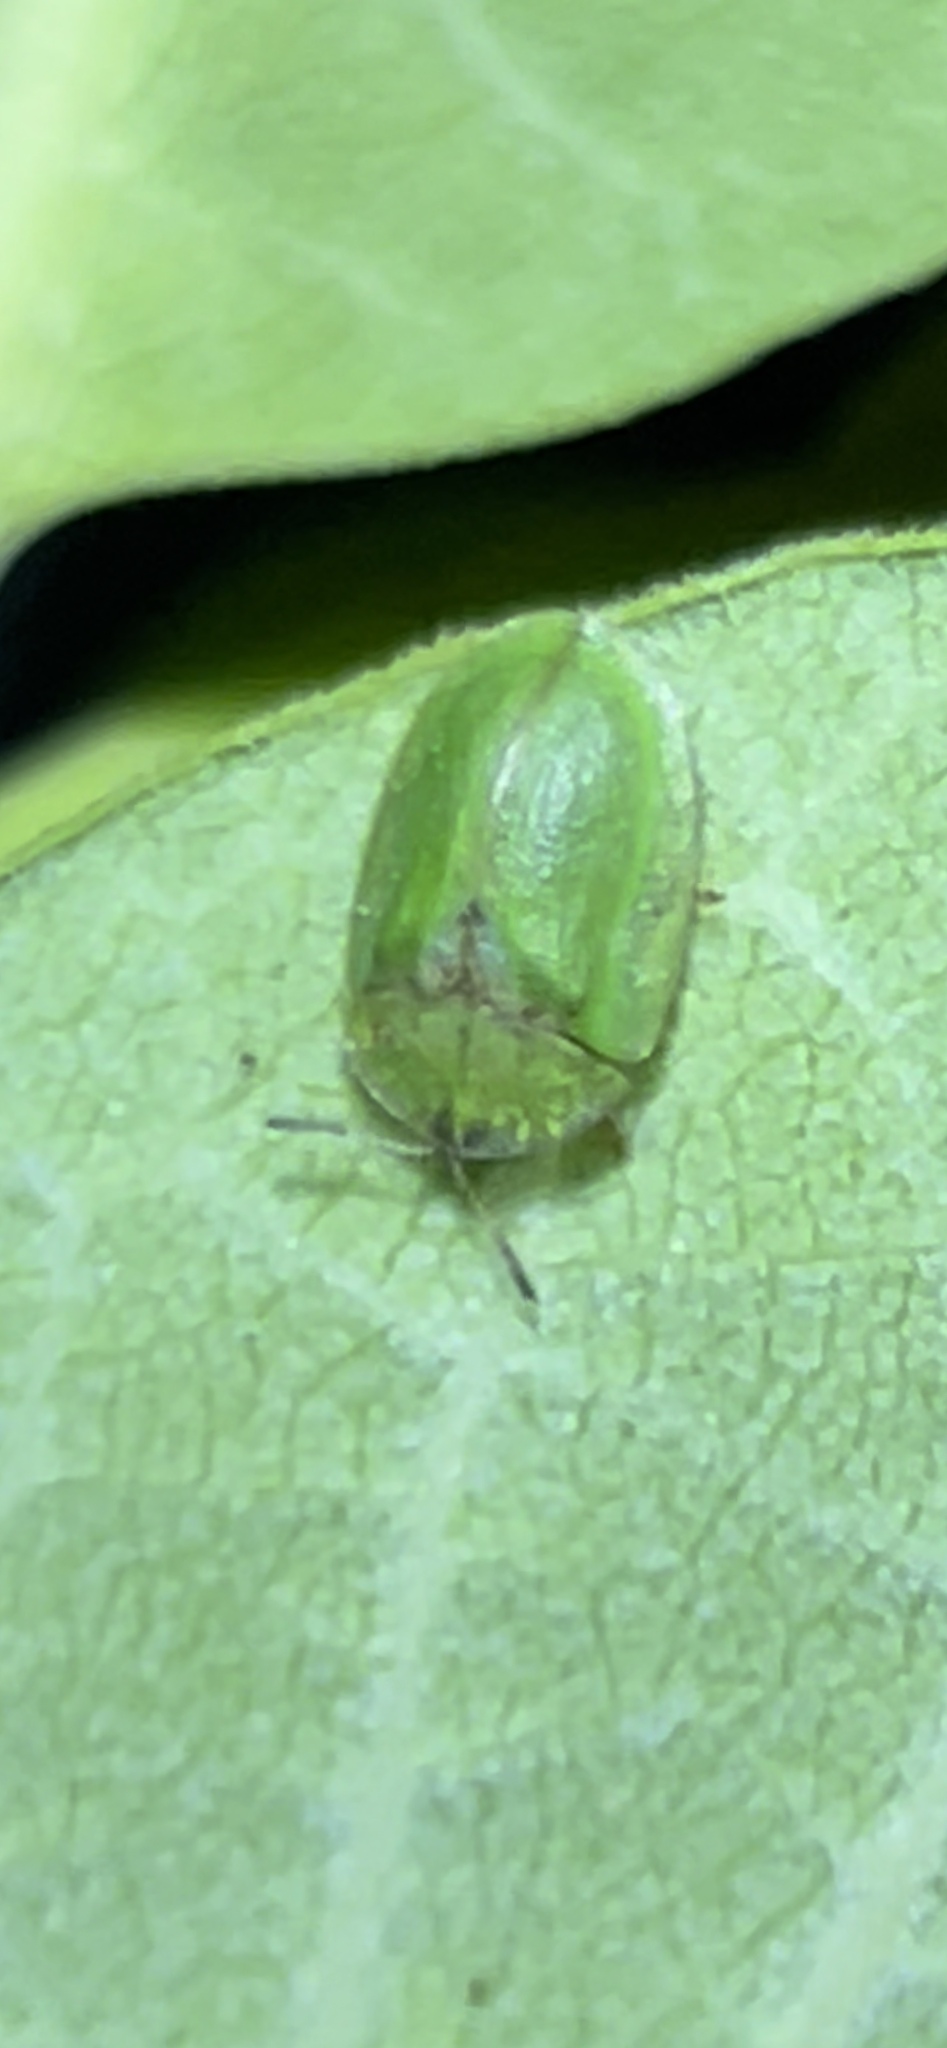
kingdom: Animalia
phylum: Arthropoda
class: Insecta
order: Coleoptera
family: Chrysomelidae
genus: Cassida
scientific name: Cassida rubiginosa
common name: Thistle tortoise beetle
